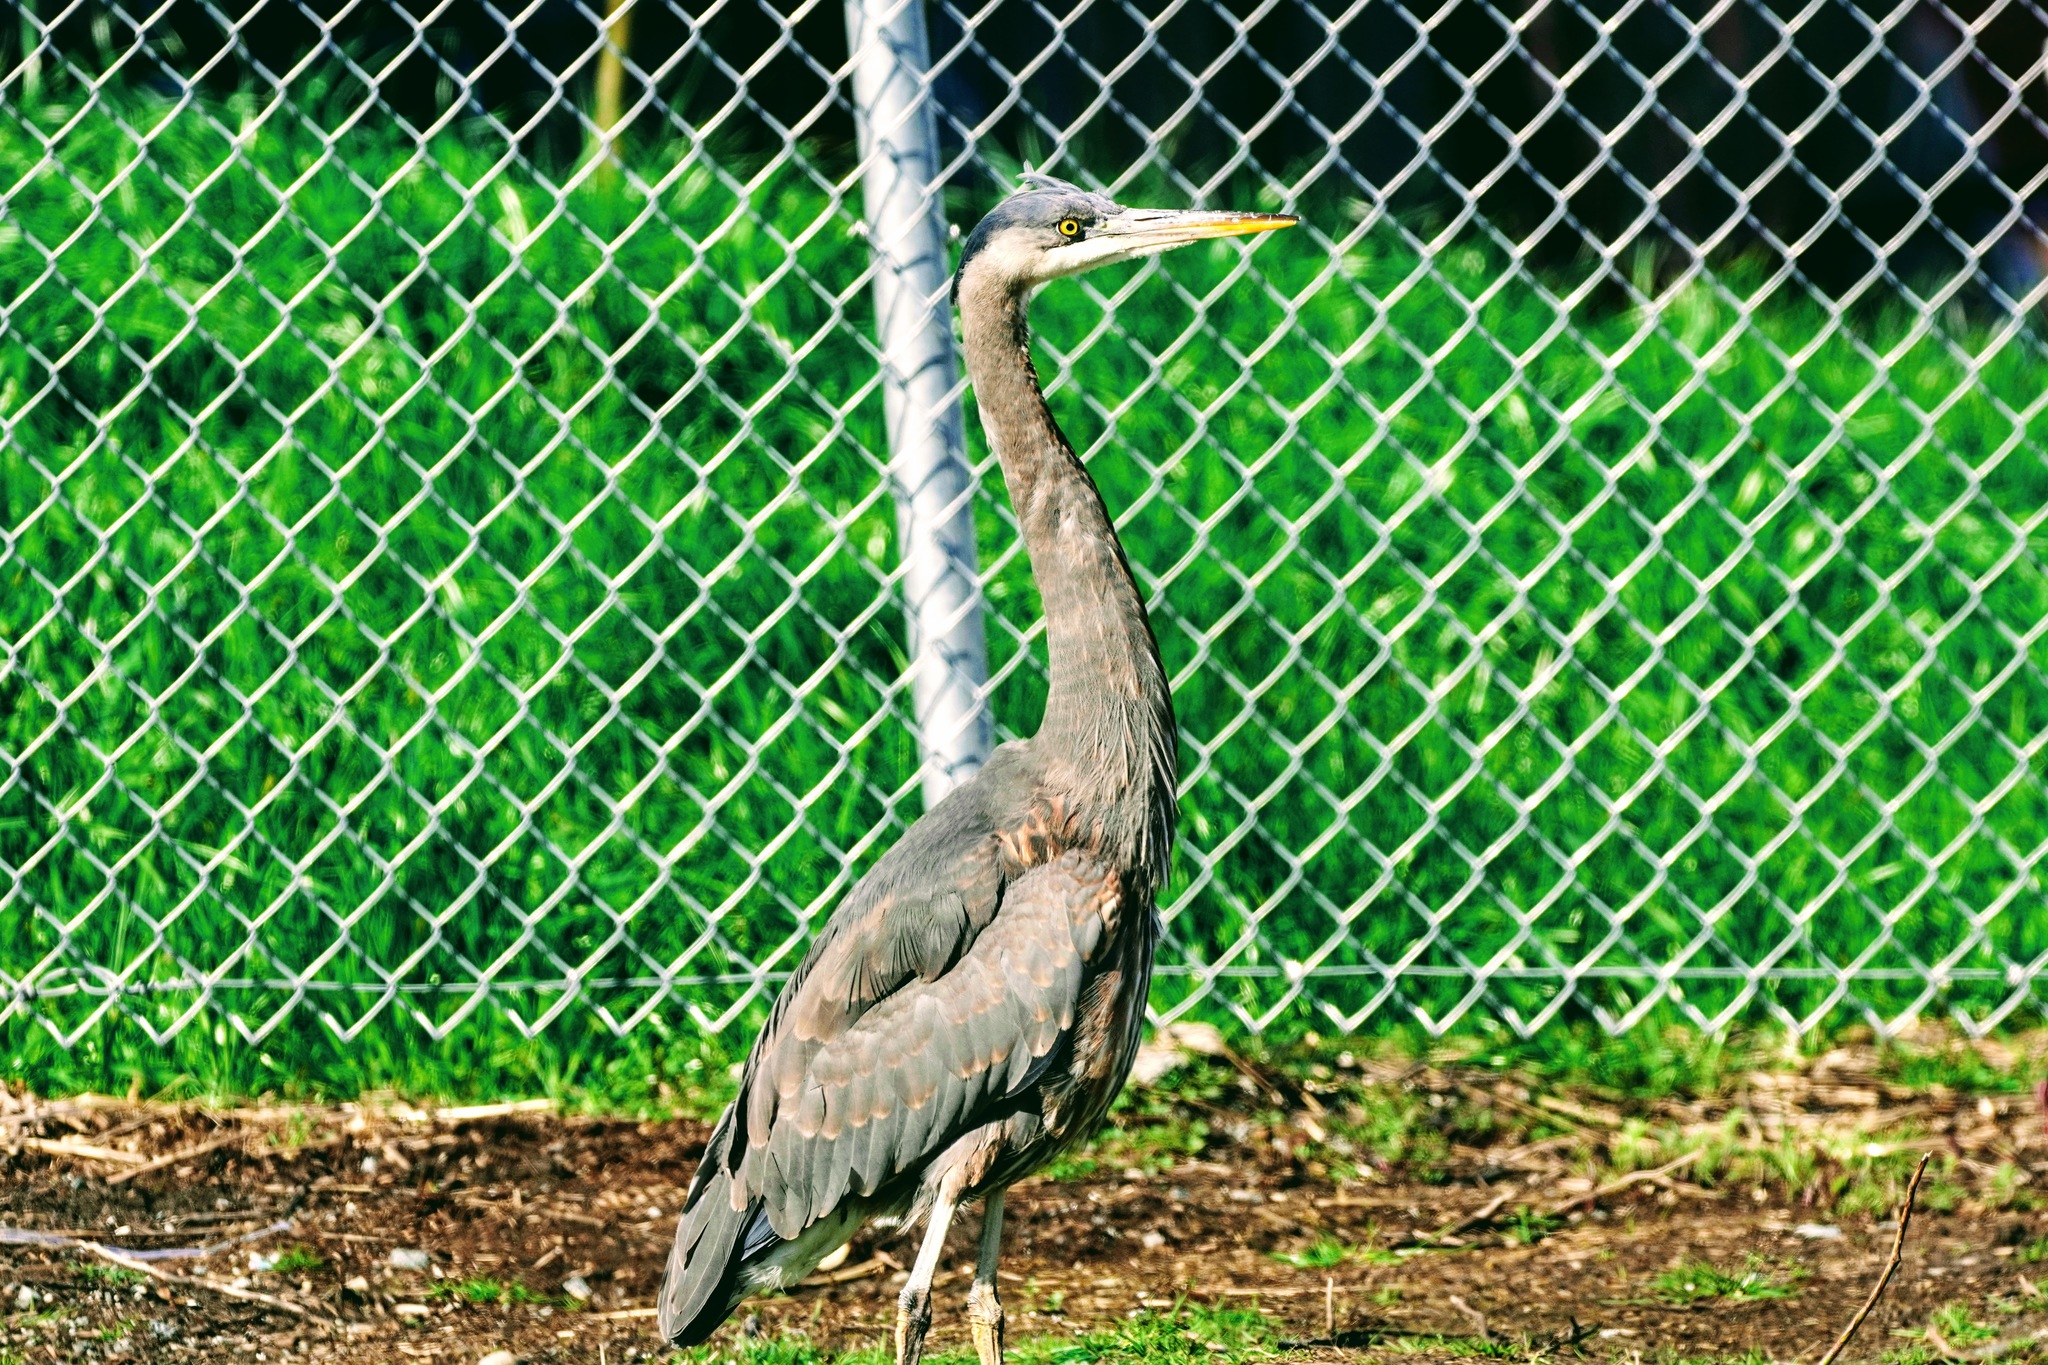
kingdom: Animalia
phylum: Chordata
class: Aves
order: Pelecaniformes
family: Ardeidae
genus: Ardea
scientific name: Ardea herodias
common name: Great blue heron
